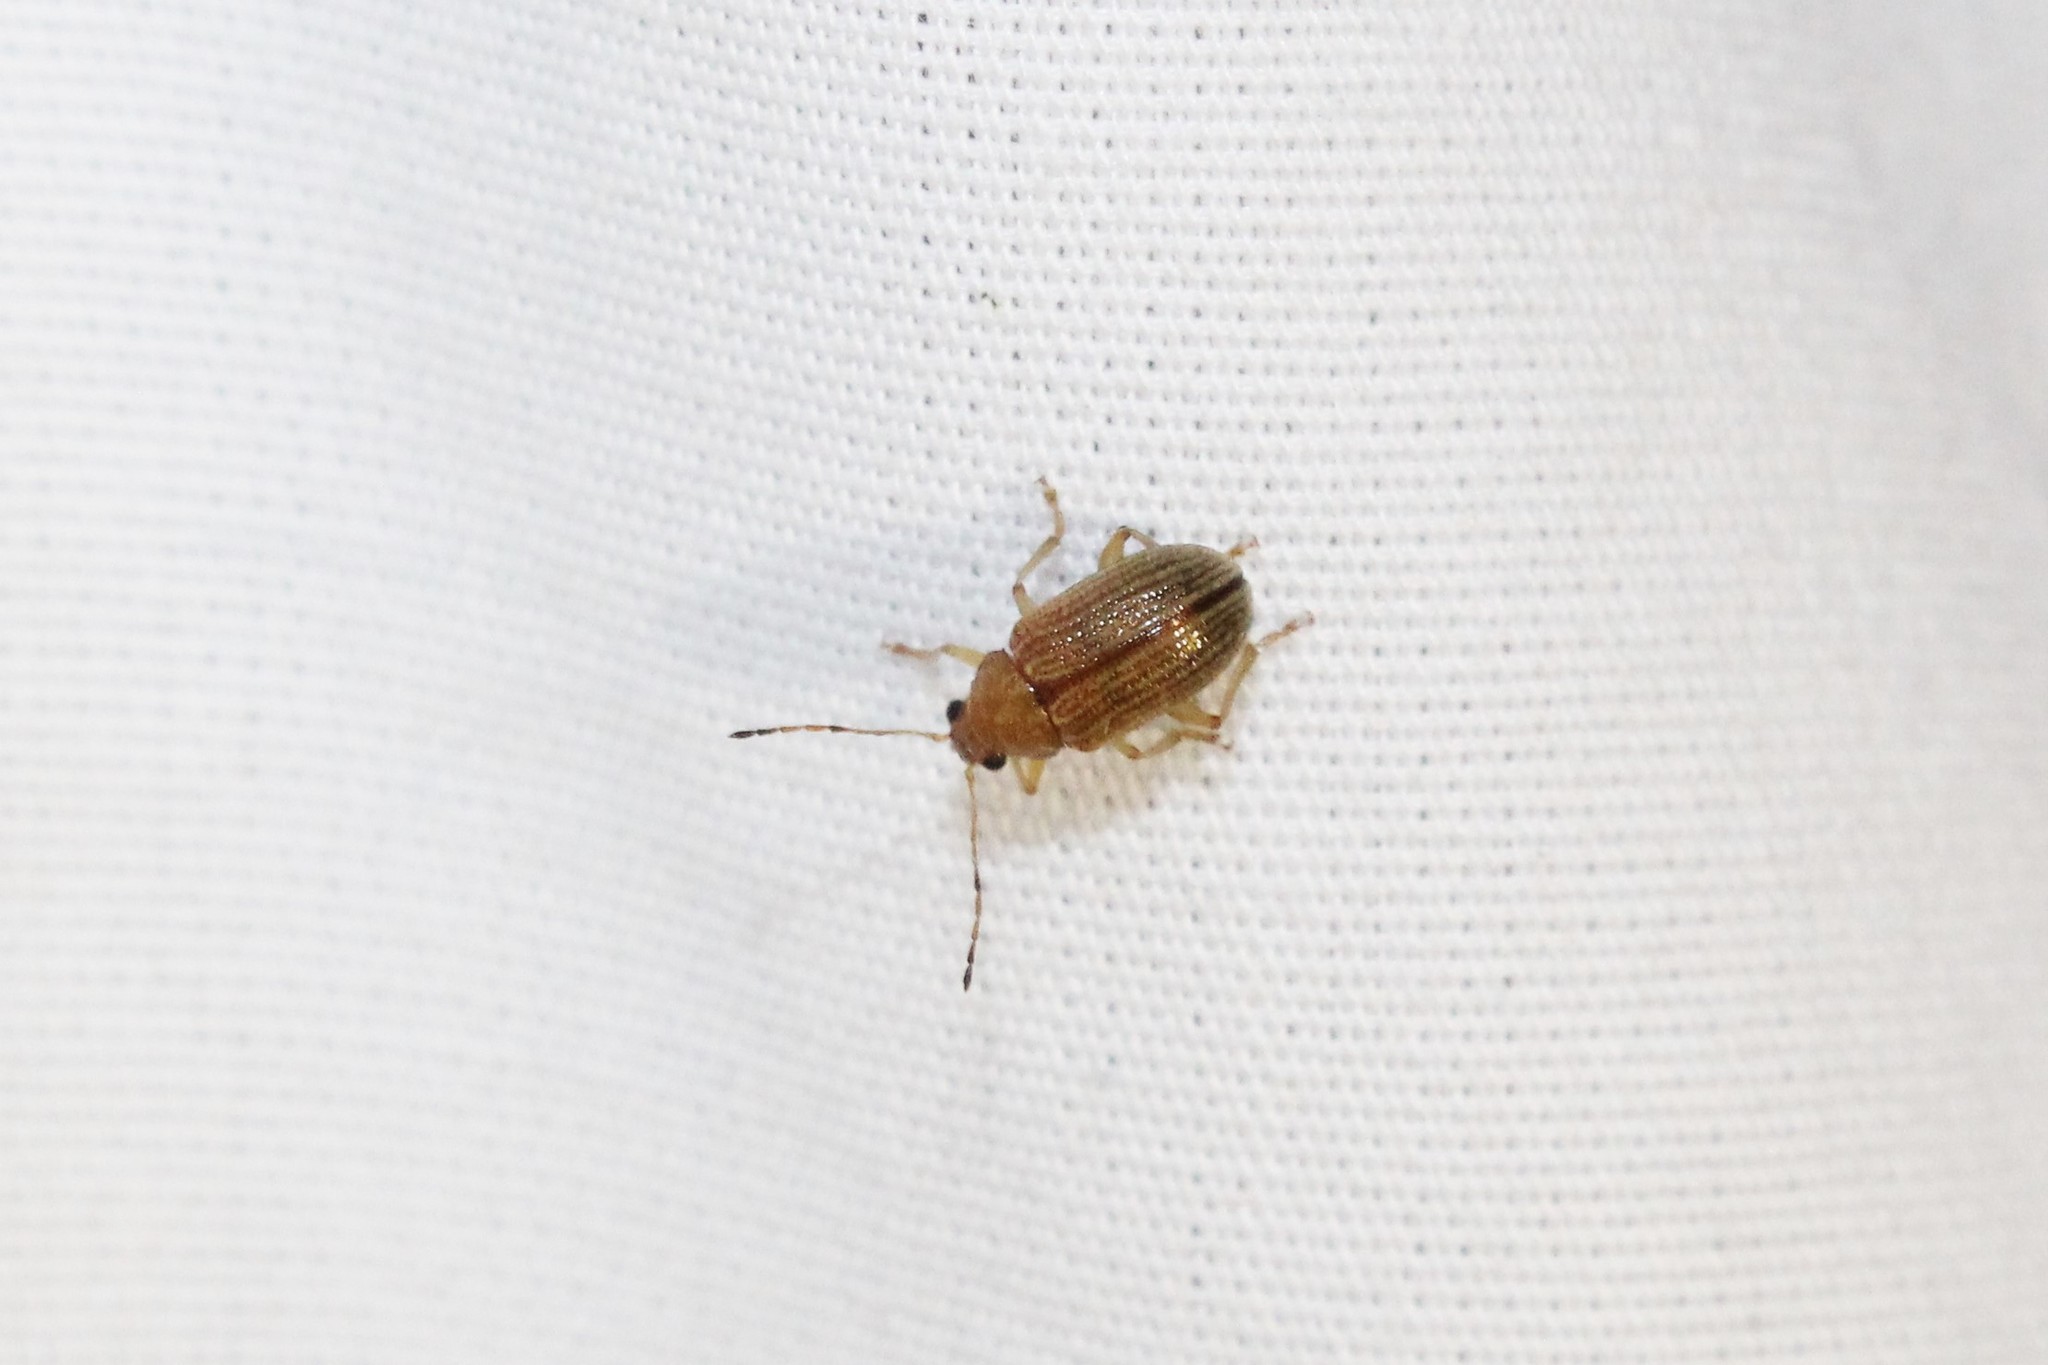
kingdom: Animalia
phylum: Arthropoda
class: Insecta
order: Coleoptera
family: Chrysomelidae
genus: Colaspis
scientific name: Colaspis brunnea
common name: Grape colaspis
